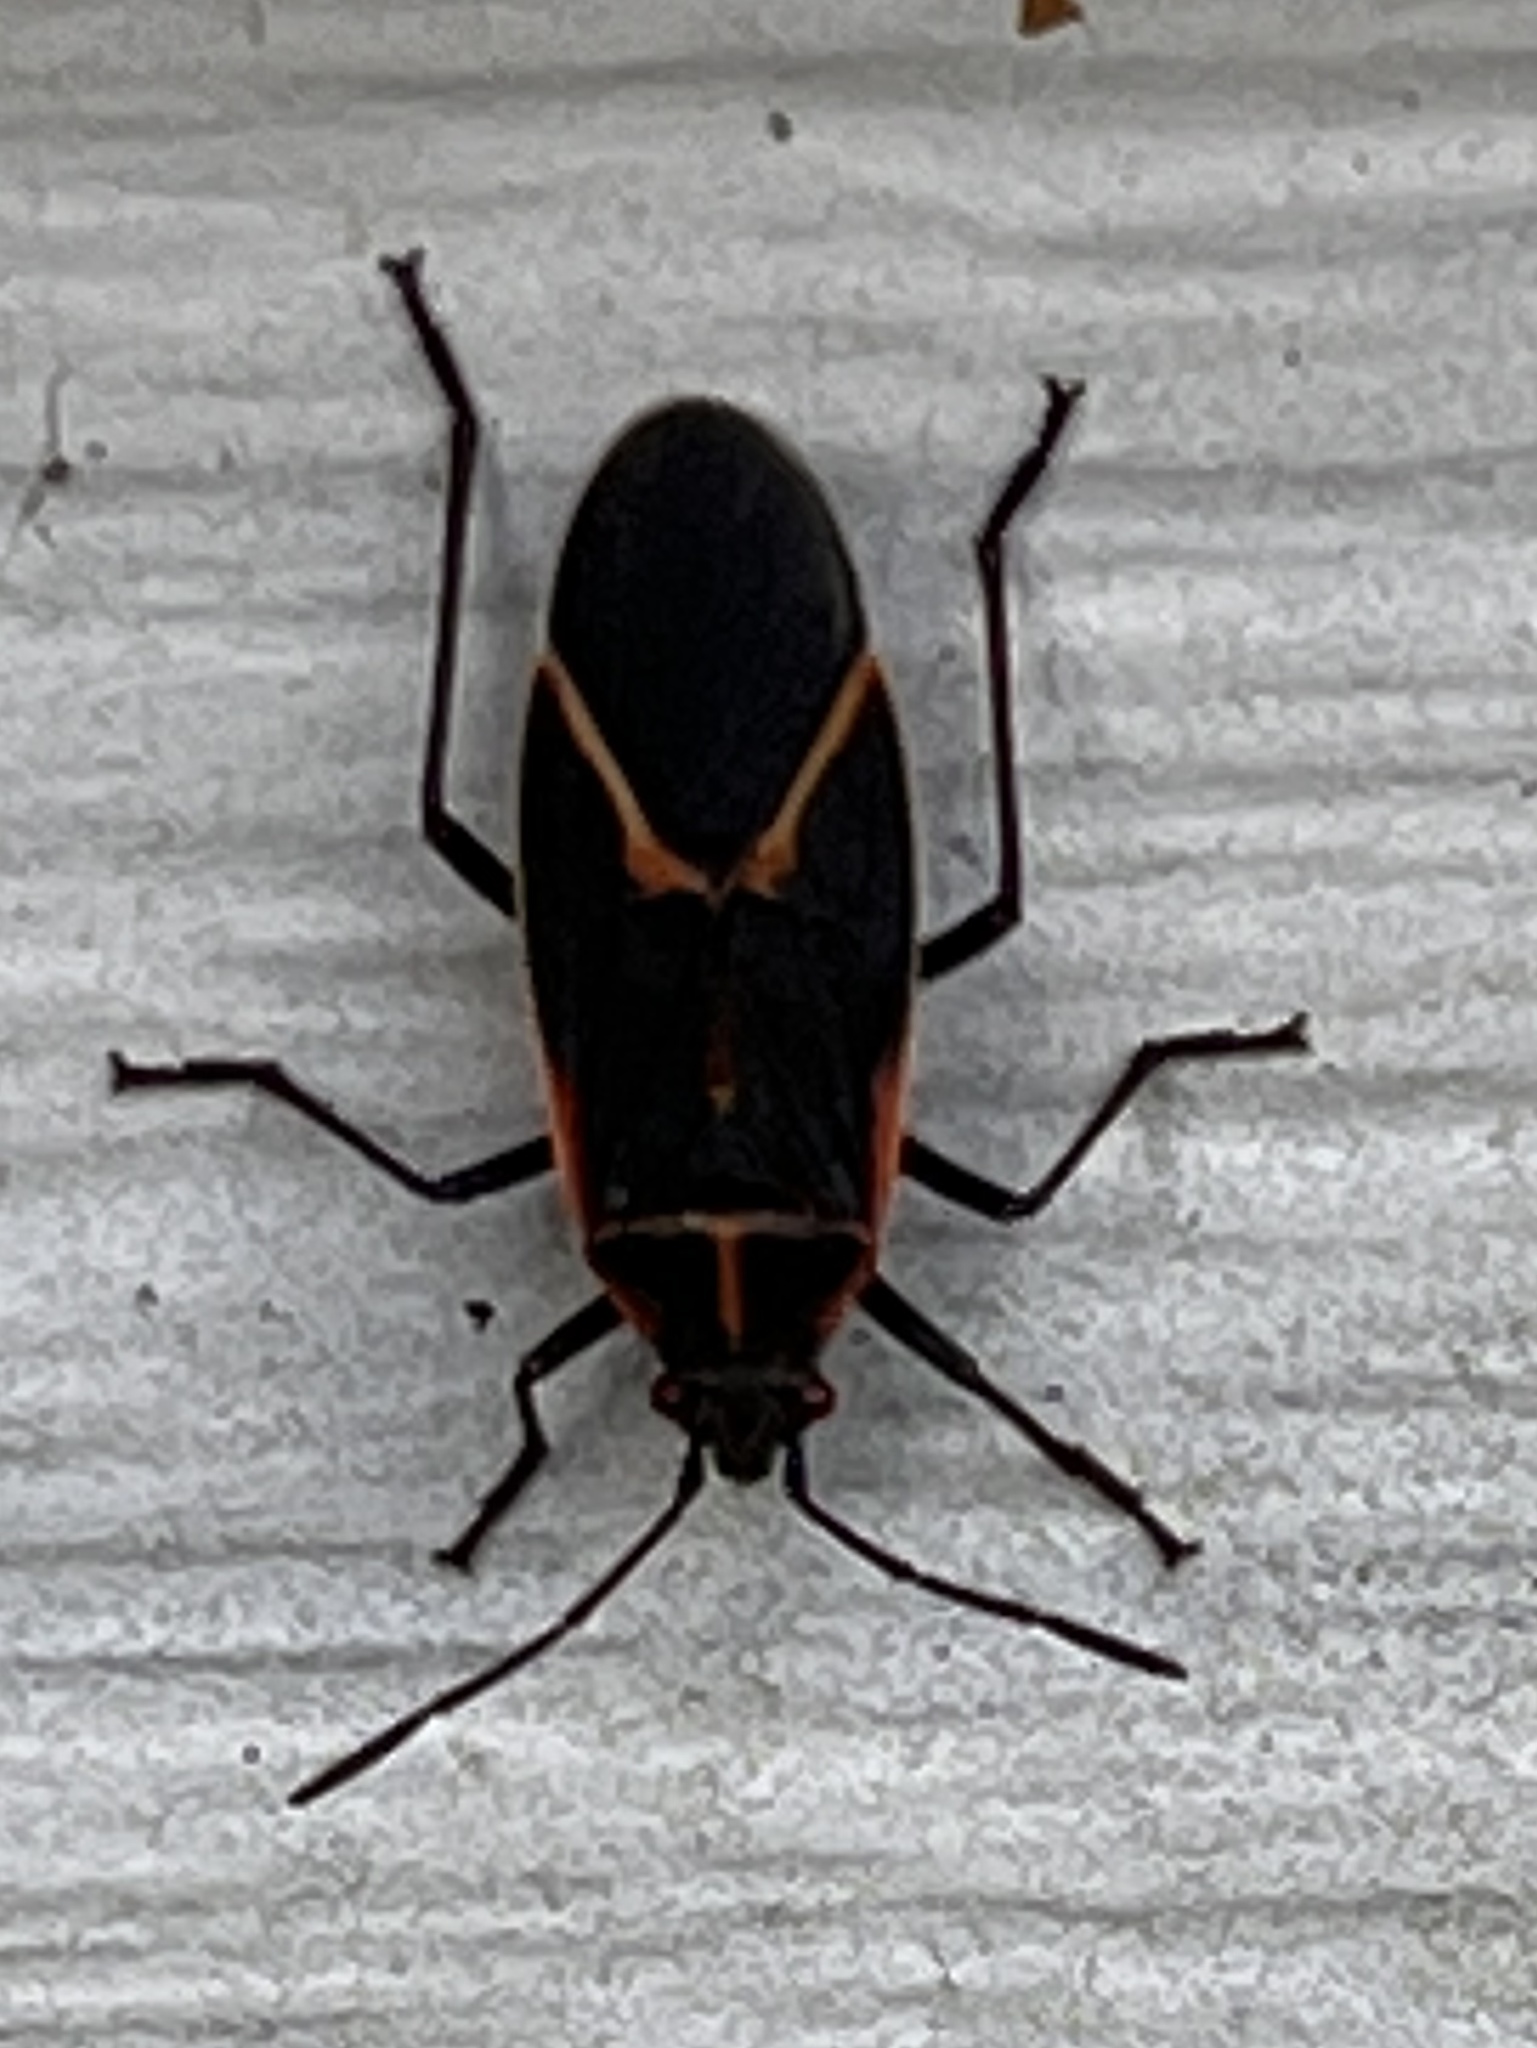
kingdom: Animalia
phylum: Arthropoda
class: Insecta
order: Hemiptera
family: Rhopalidae
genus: Boisea
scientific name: Boisea trivittata
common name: Boxelder bug
